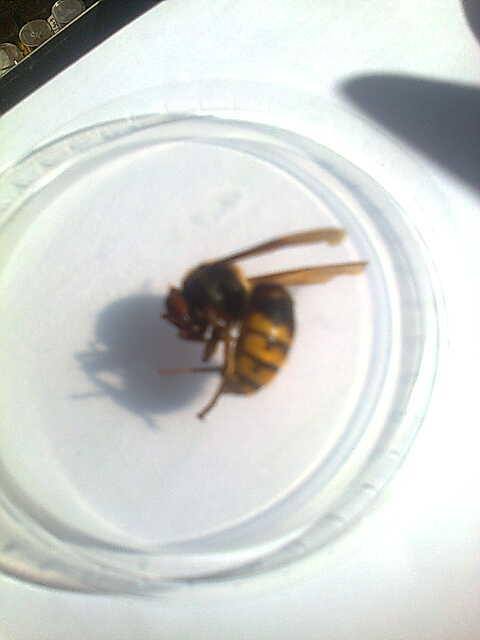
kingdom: Animalia
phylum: Arthropoda
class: Insecta
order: Hymenoptera
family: Vespidae
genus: Vespa
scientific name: Vespa crabro
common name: Hornet
